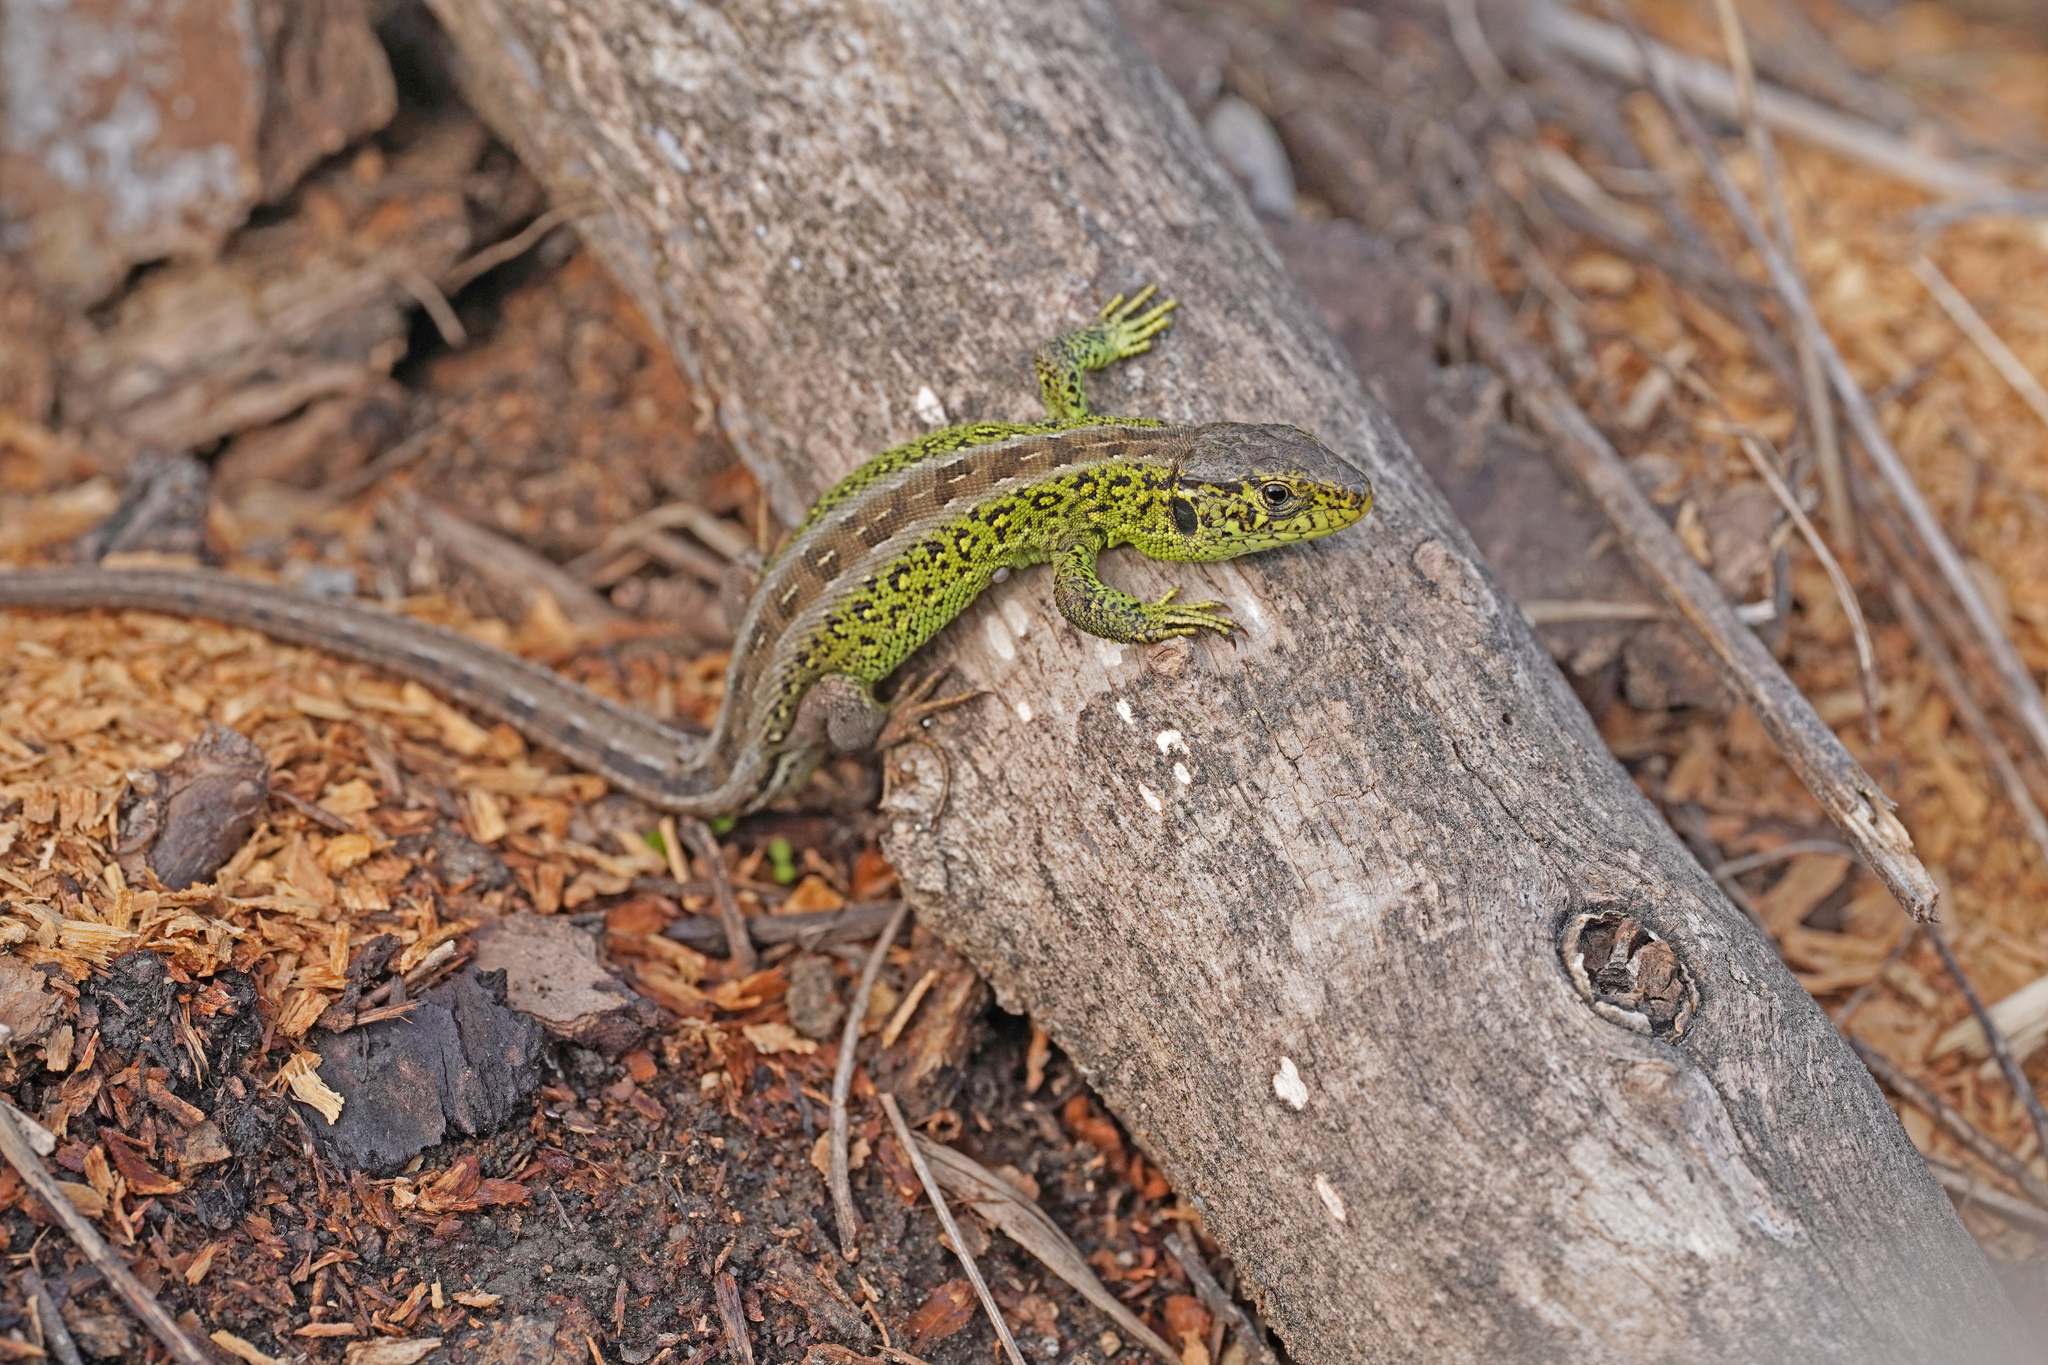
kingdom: Animalia
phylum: Chordata
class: Squamata
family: Lacertidae
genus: Lacerta
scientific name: Lacerta agilis
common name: Sand lizard
